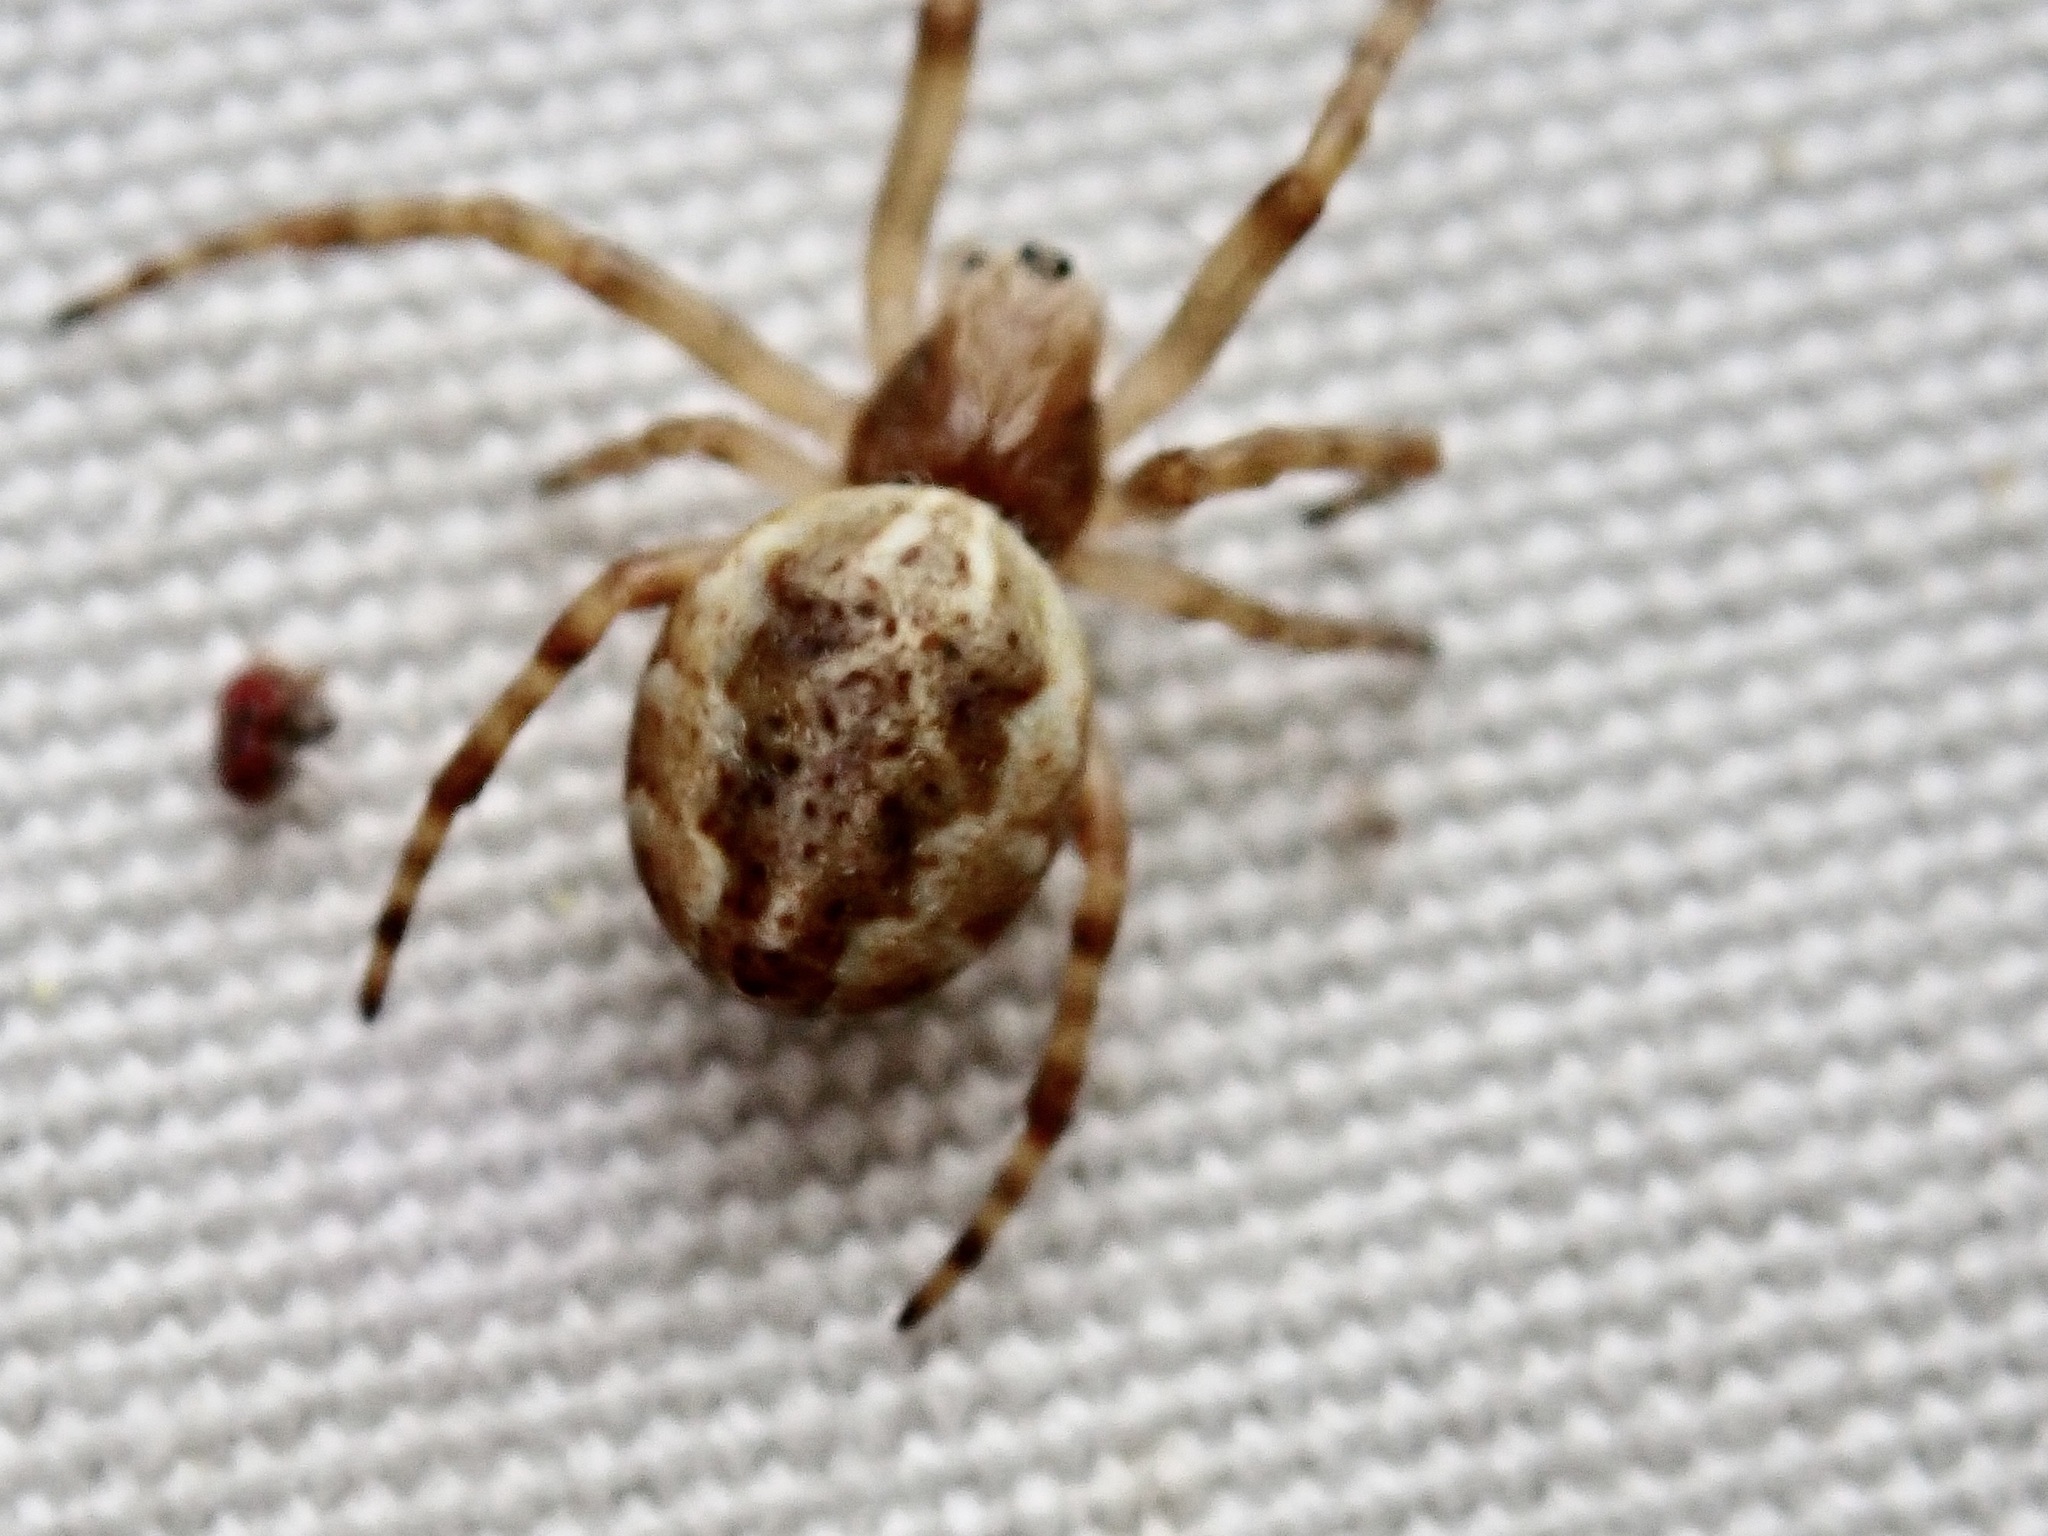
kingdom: Animalia
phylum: Arthropoda
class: Arachnida
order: Araneae
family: Araneidae
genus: Salsa
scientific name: Salsa fuliginata
